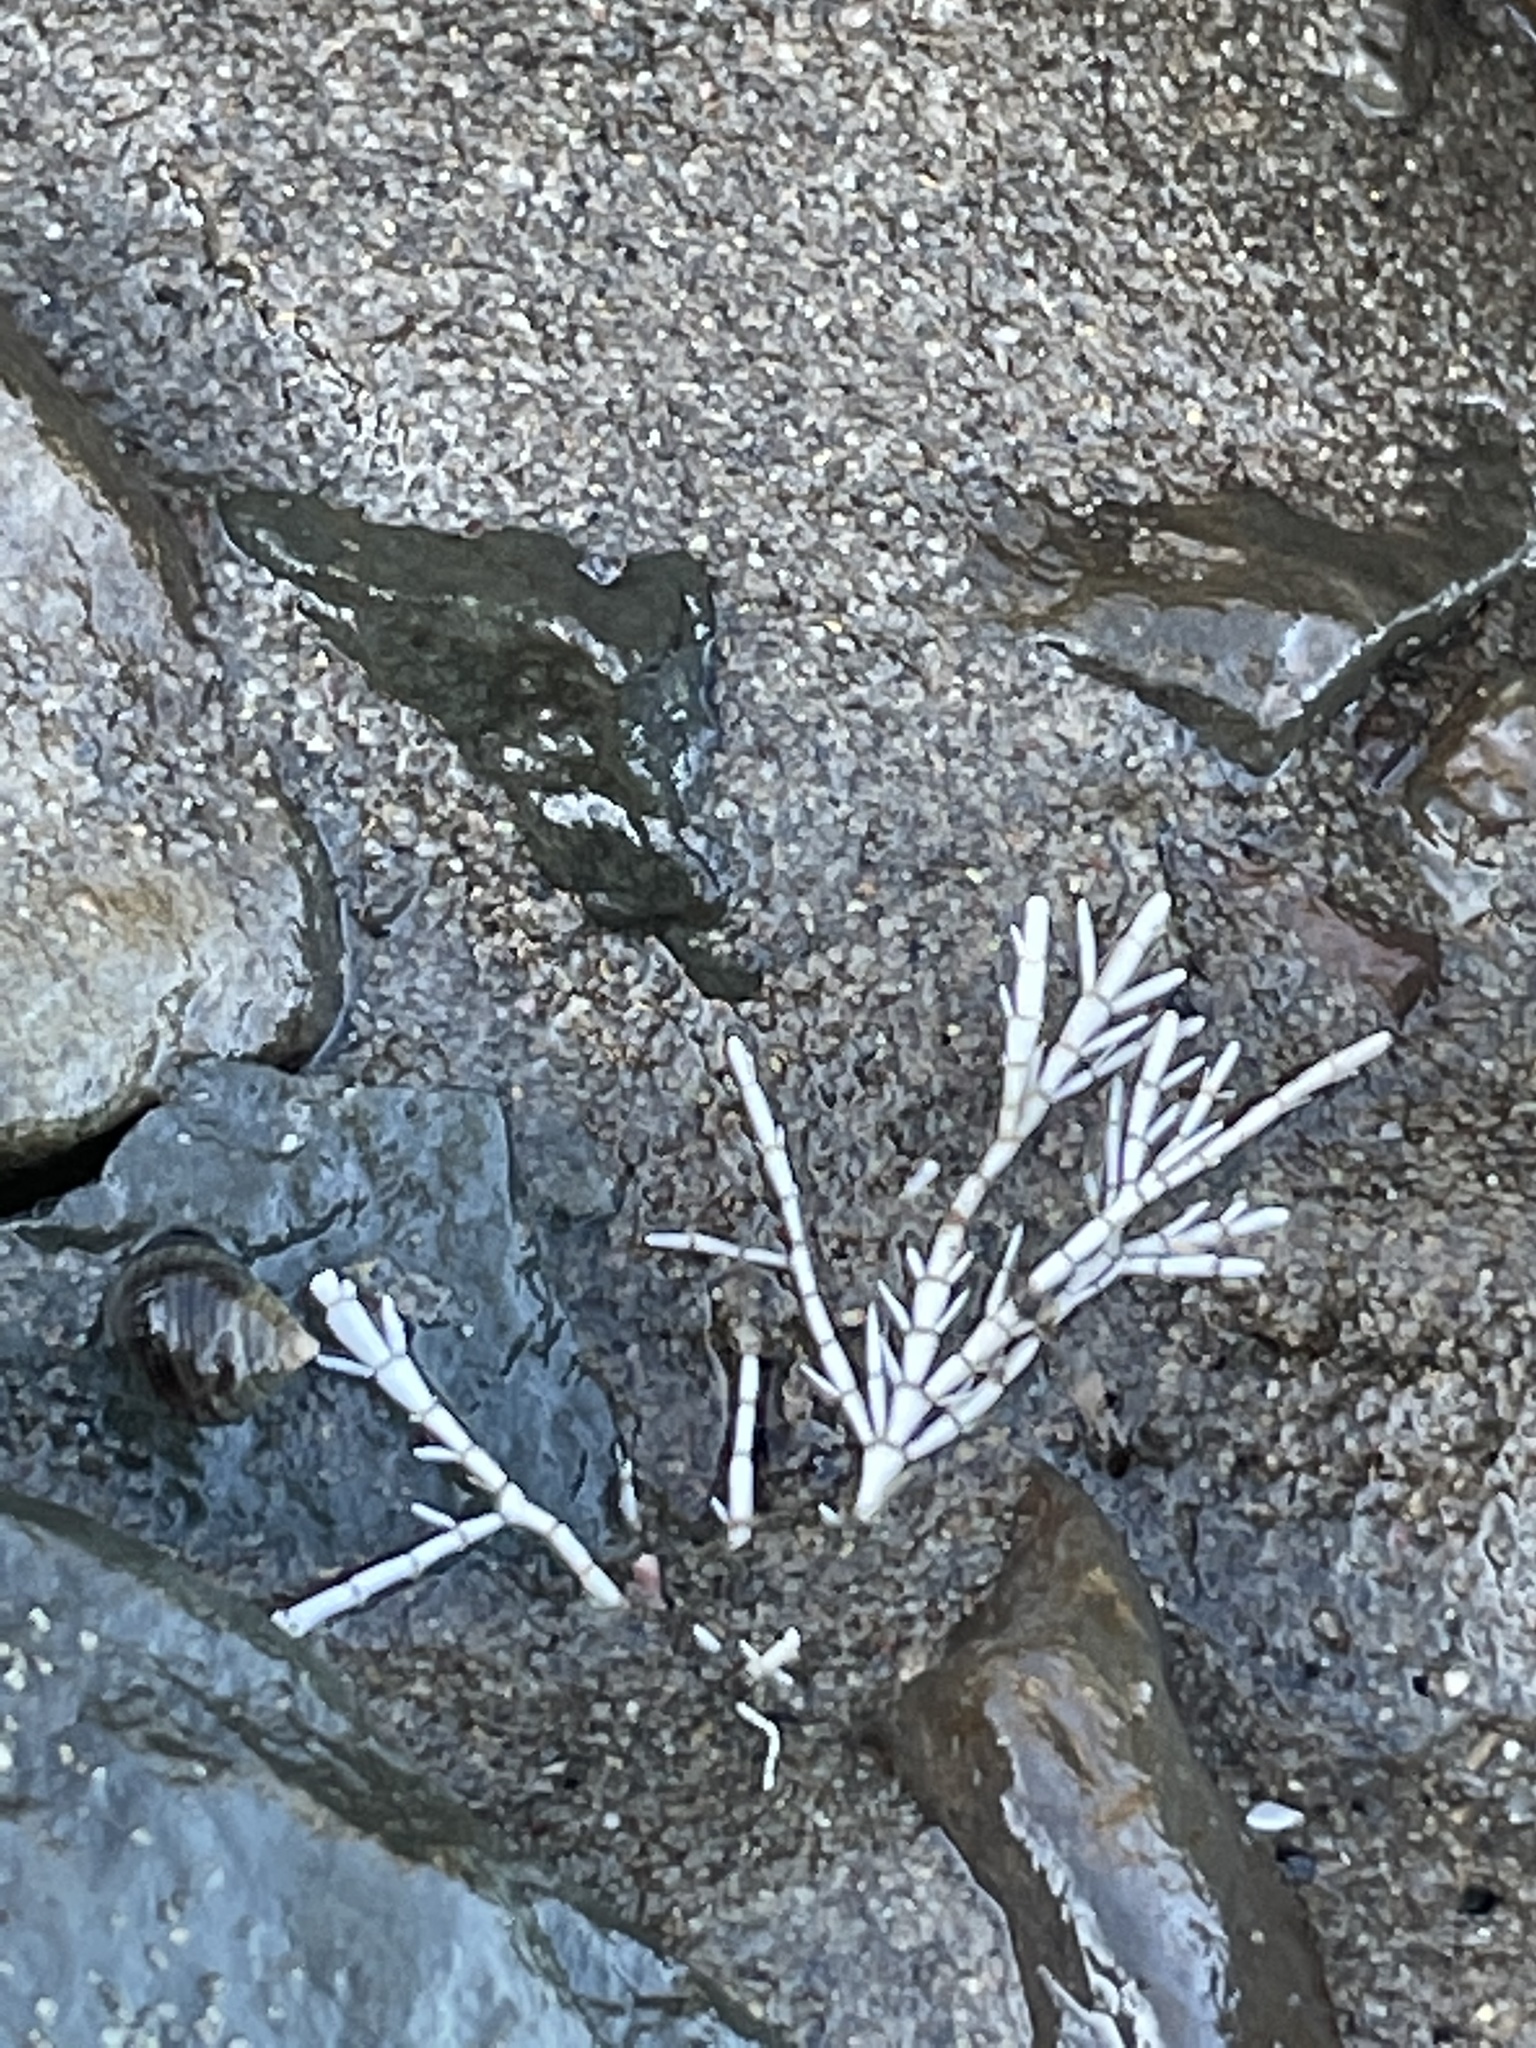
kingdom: Plantae
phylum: Rhodophyta
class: Florideophyceae
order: Corallinales
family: Corallinaceae
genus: Corallina
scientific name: Corallina officinalis
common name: Coral weed
